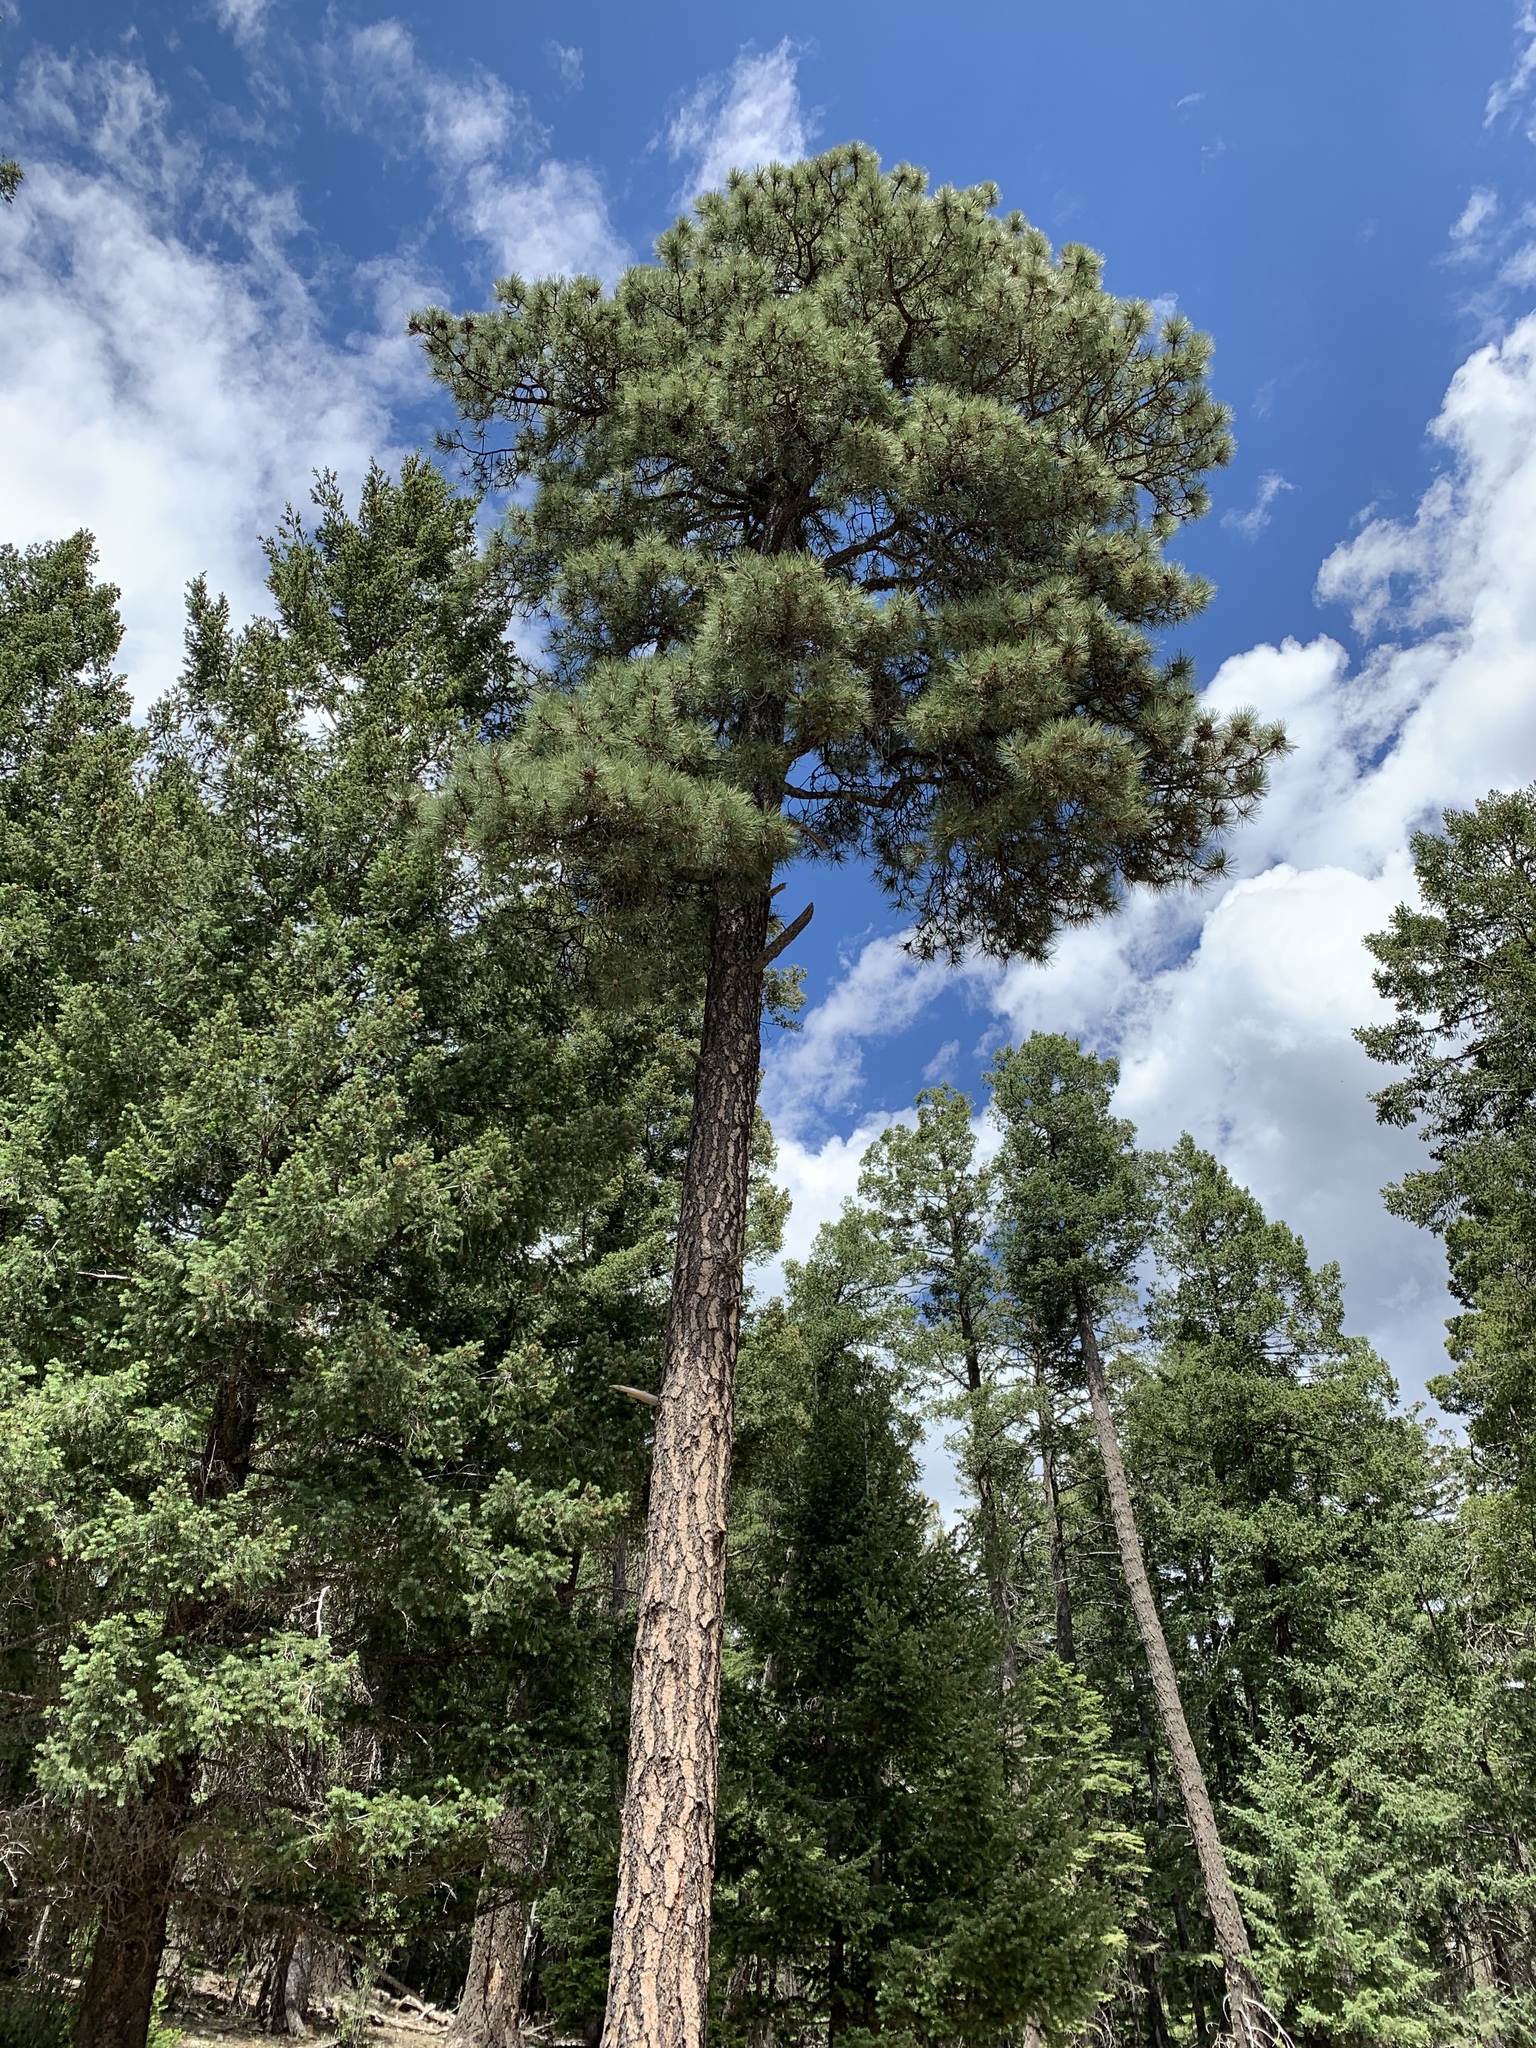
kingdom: Plantae
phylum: Tracheophyta
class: Pinopsida
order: Pinales
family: Pinaceae
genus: Pinus
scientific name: Pinus ponderosa
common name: Western yellow-pine
